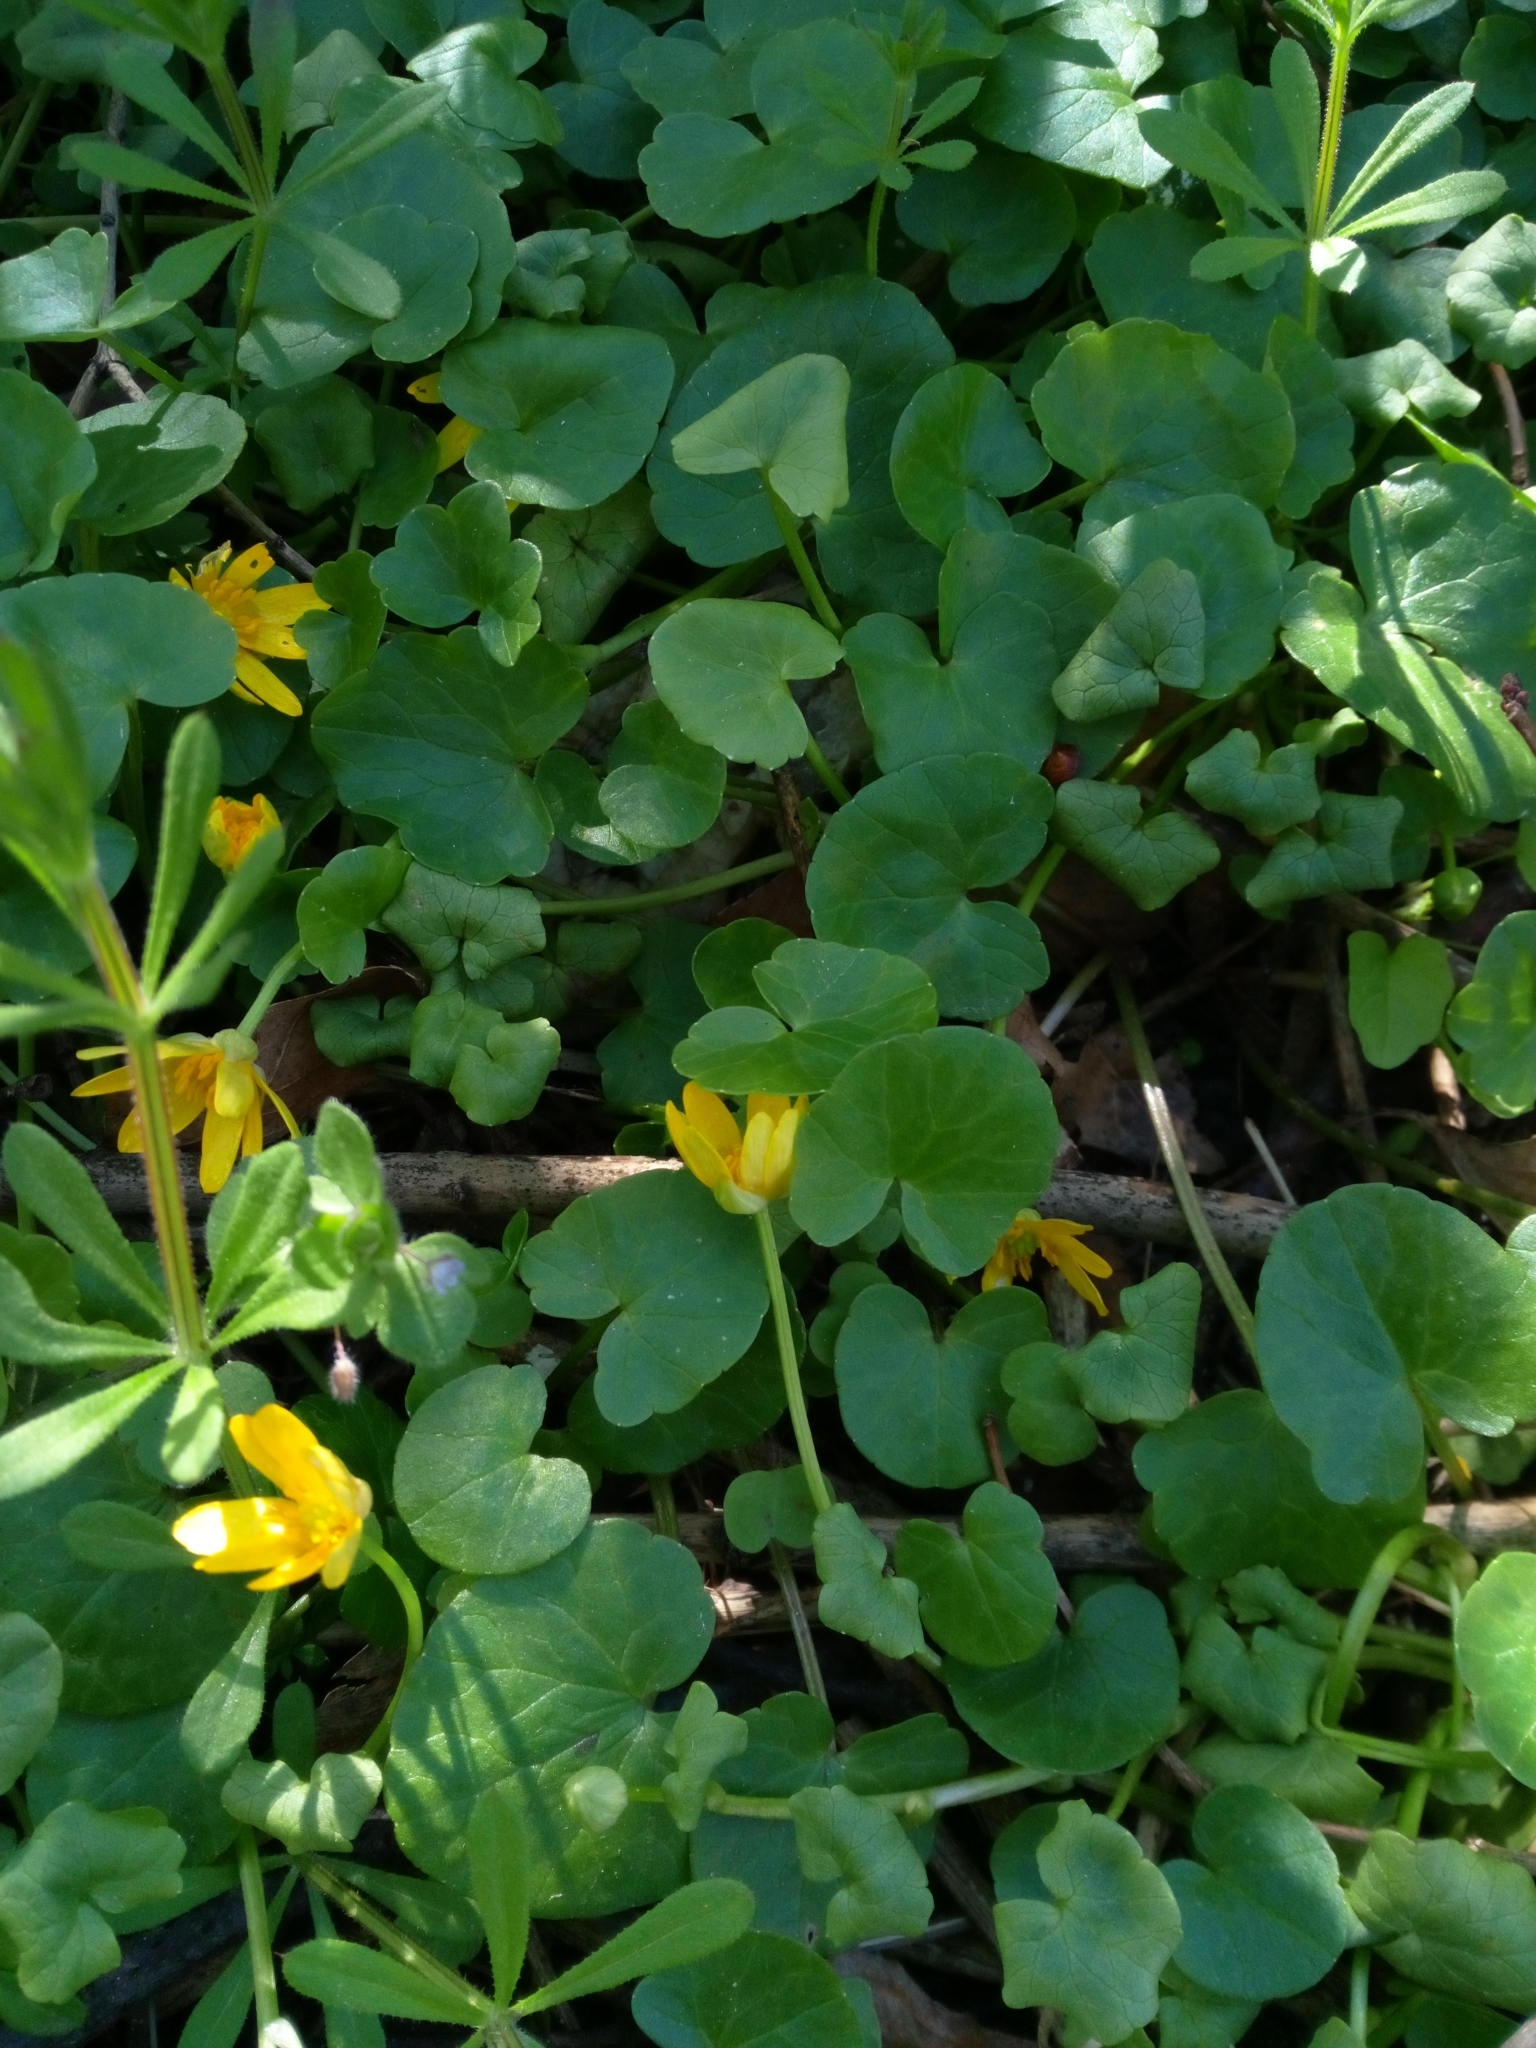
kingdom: Plantae
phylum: Tracheophyta
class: Magnoliopsida
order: Ranunculales
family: Ranunculaceae
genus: Ficaria
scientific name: Ficaria verna
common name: Lesser celandine
